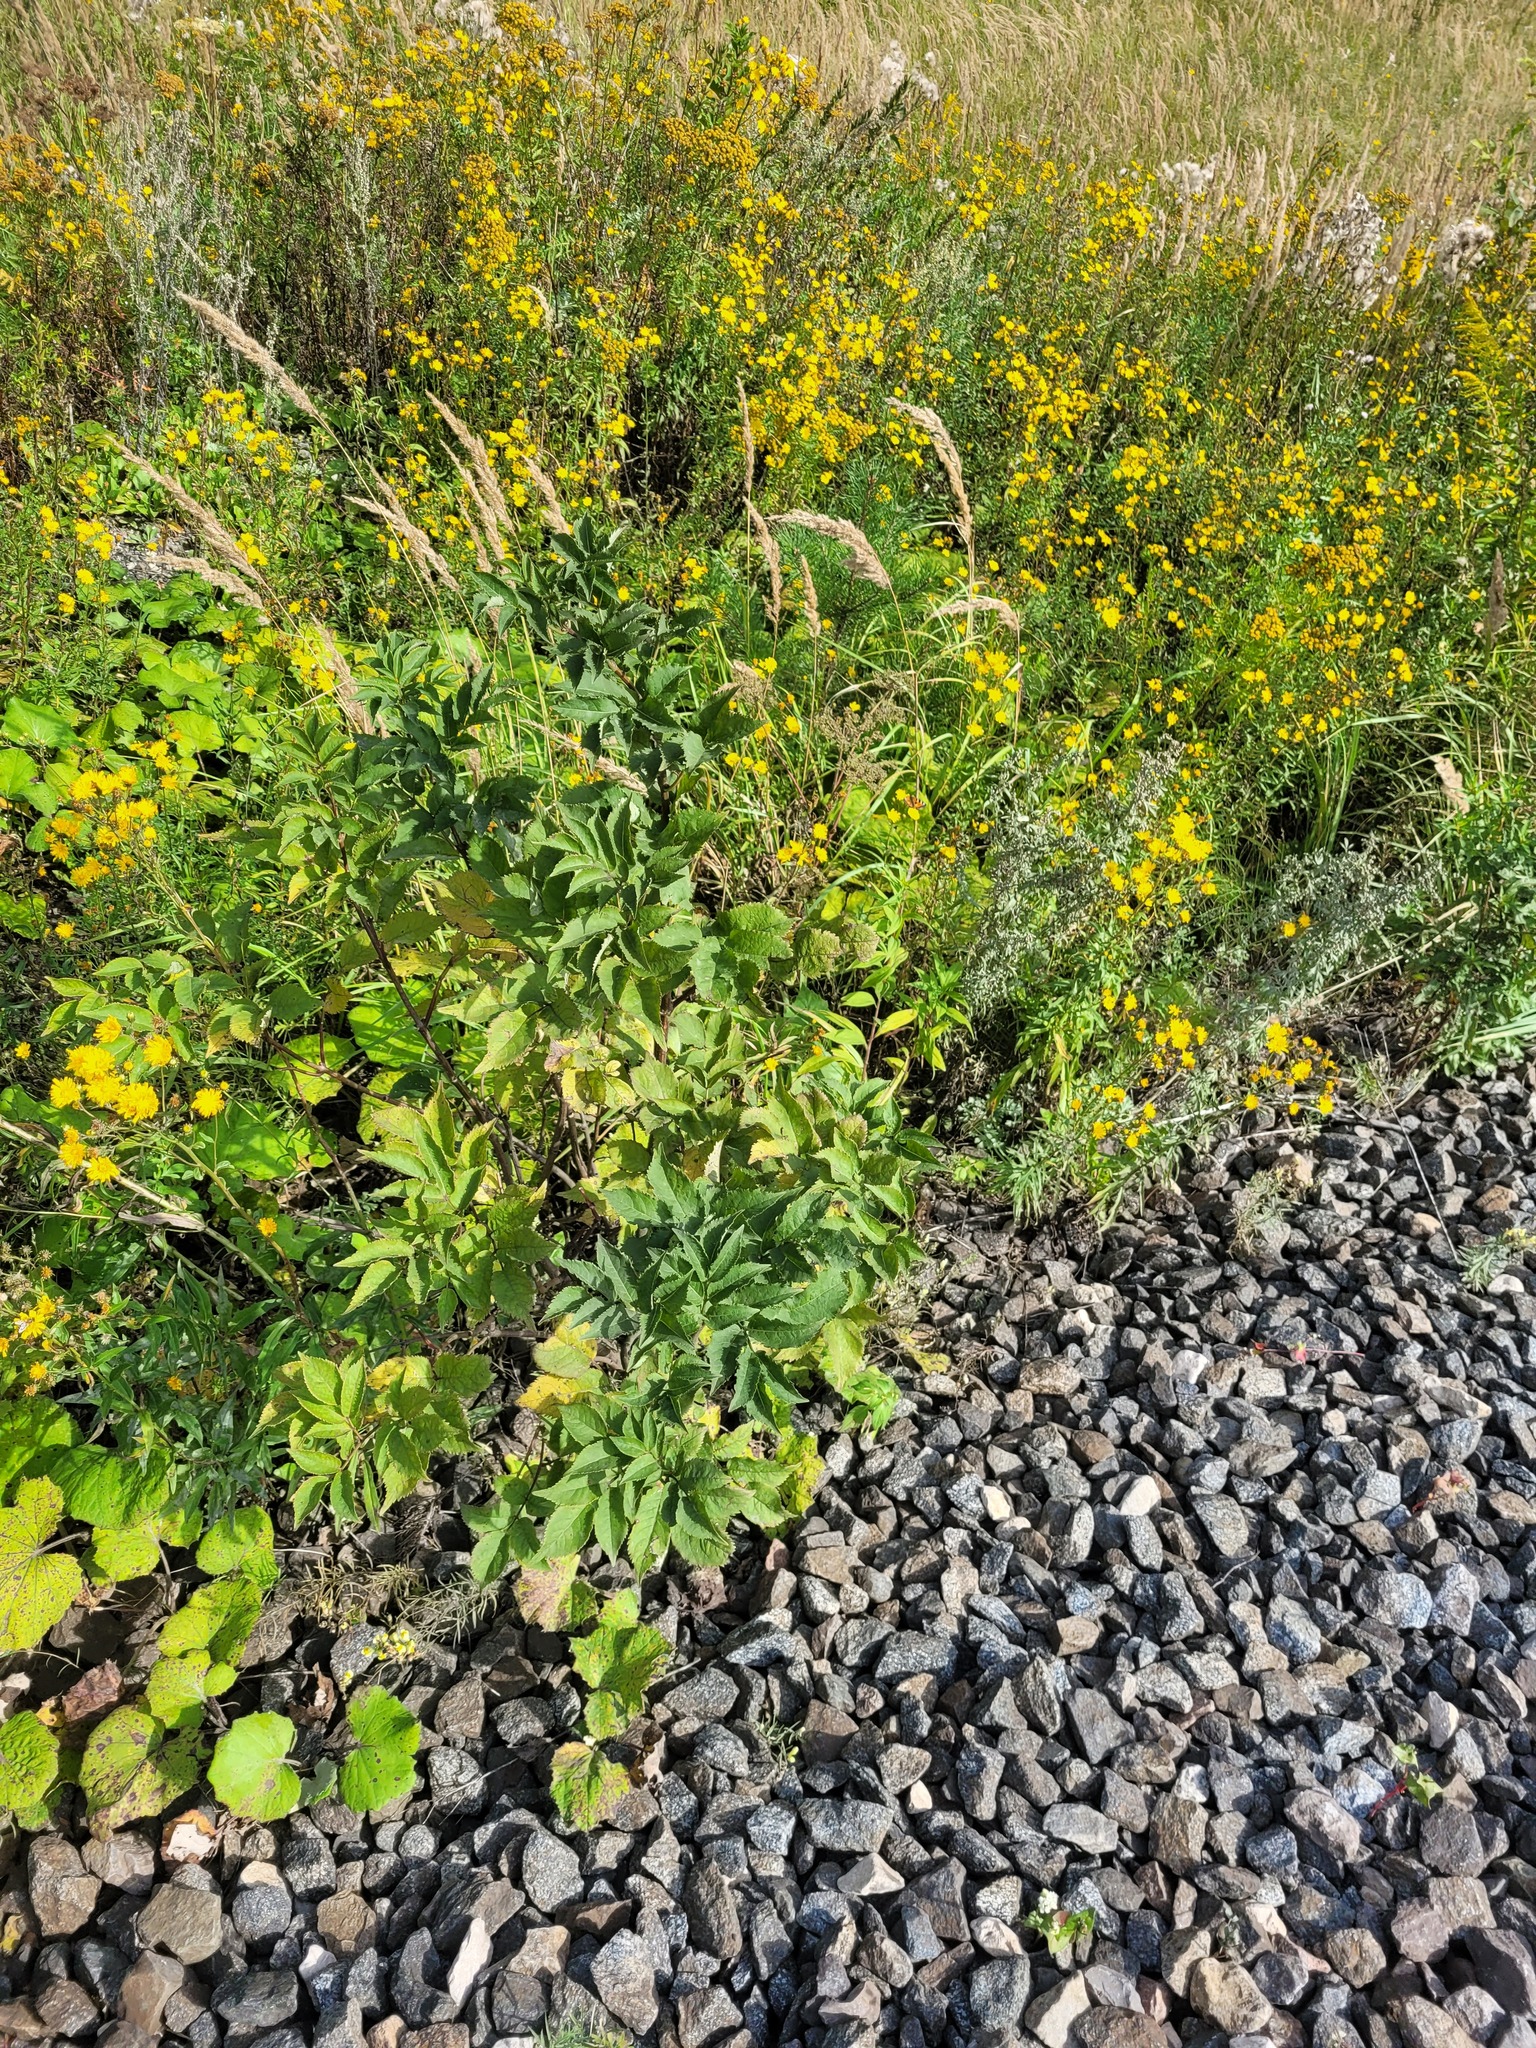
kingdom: Plantae
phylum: Tracheophyta
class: Magnoliopsida
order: Dipsacales
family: Viburnaceae
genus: Sambucus
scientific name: Sambucus racemosa
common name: Red-berried elder
